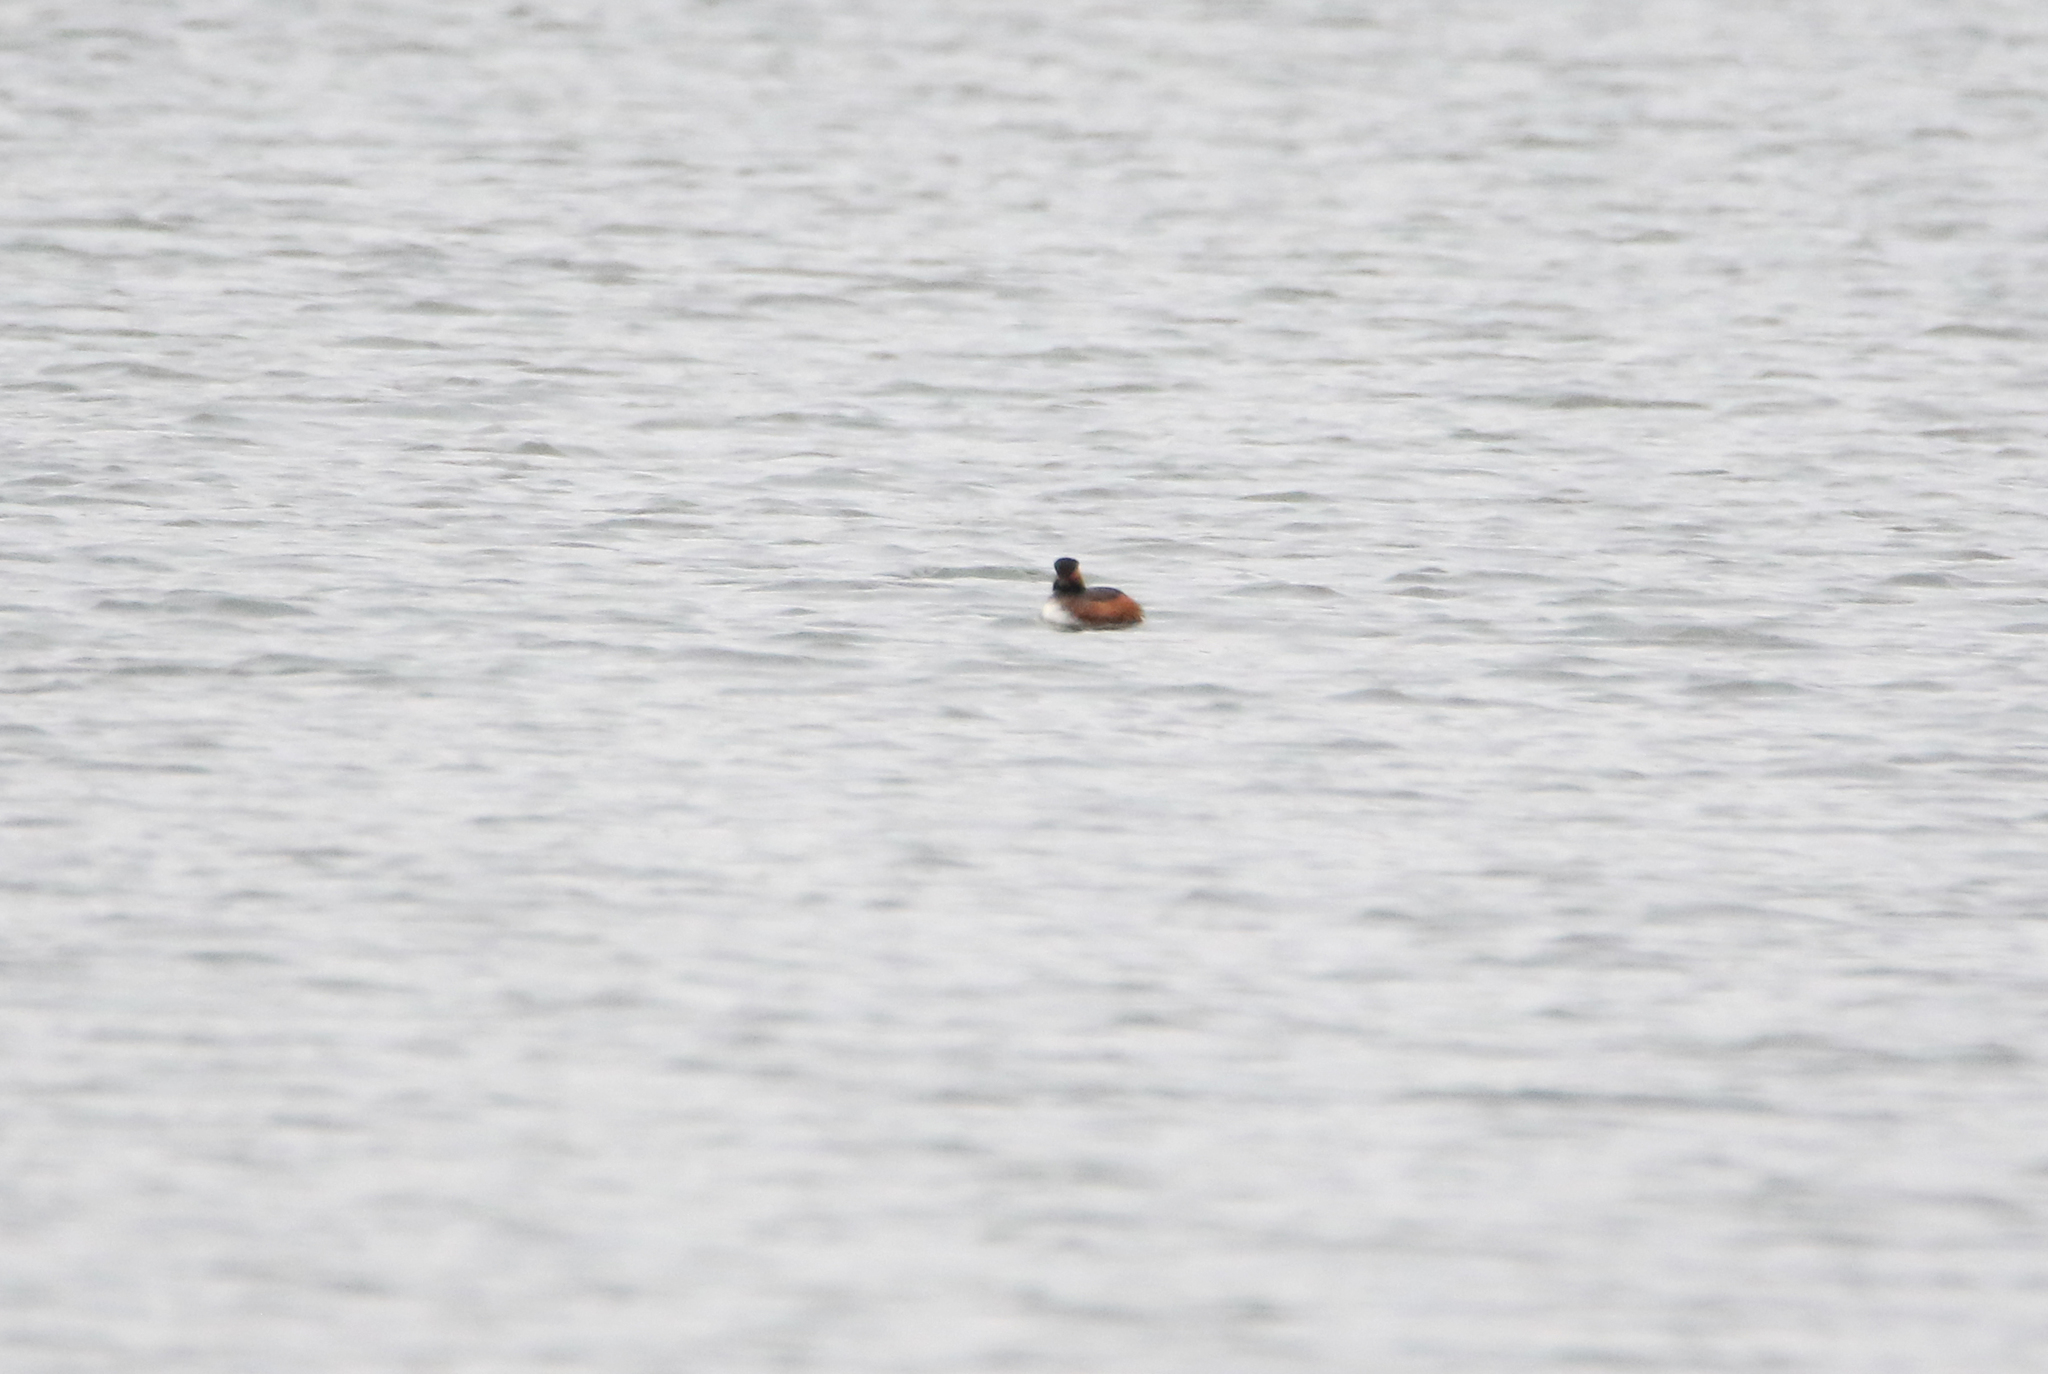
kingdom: Animalia
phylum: Chordata
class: Aves
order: Podicipediformes
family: Podicipedidae
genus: Podiceps
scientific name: Podiceps nigricollis
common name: Black-necked grebe
